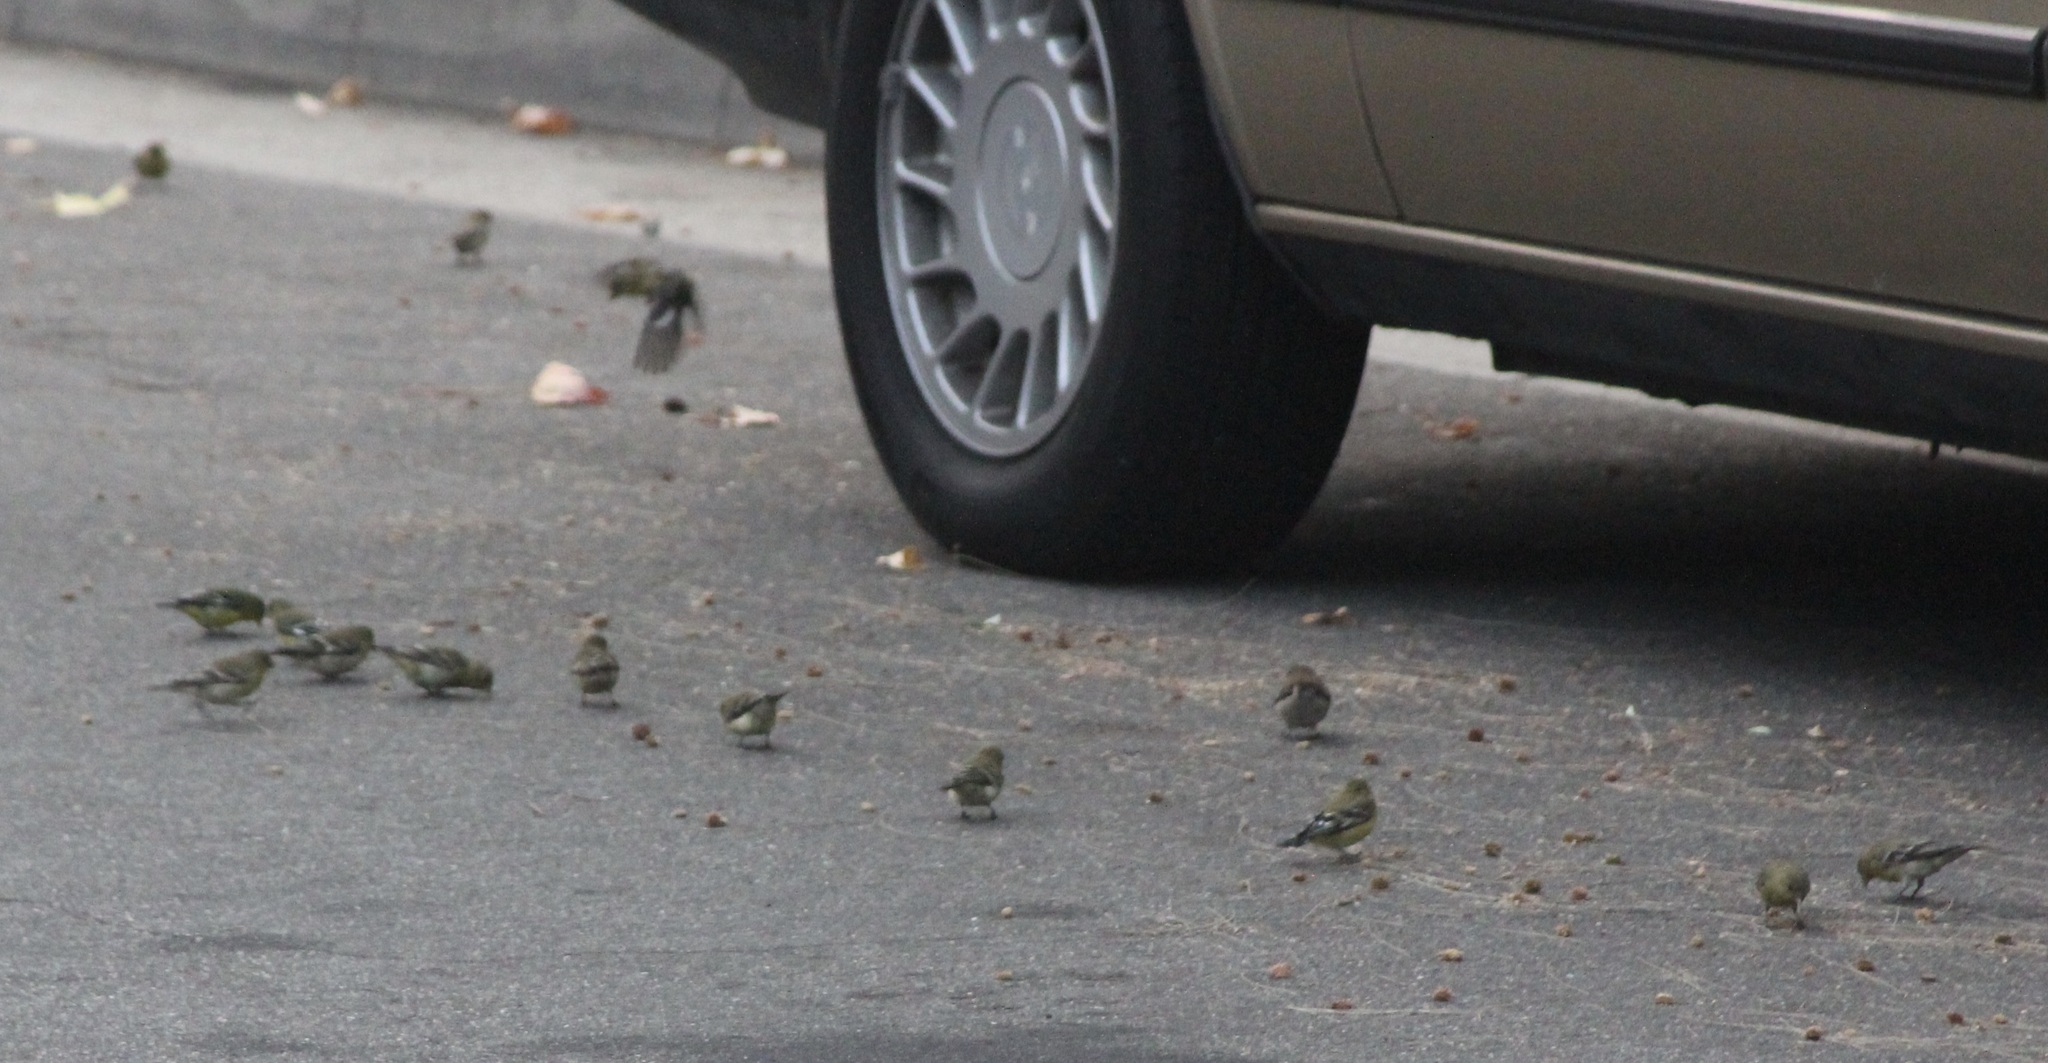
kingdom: Animalia
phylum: Chordata
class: Aves
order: Passeriformes
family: Fringillidae
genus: Spinus
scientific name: Spinus psaltria
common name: Lesser goldfinch
